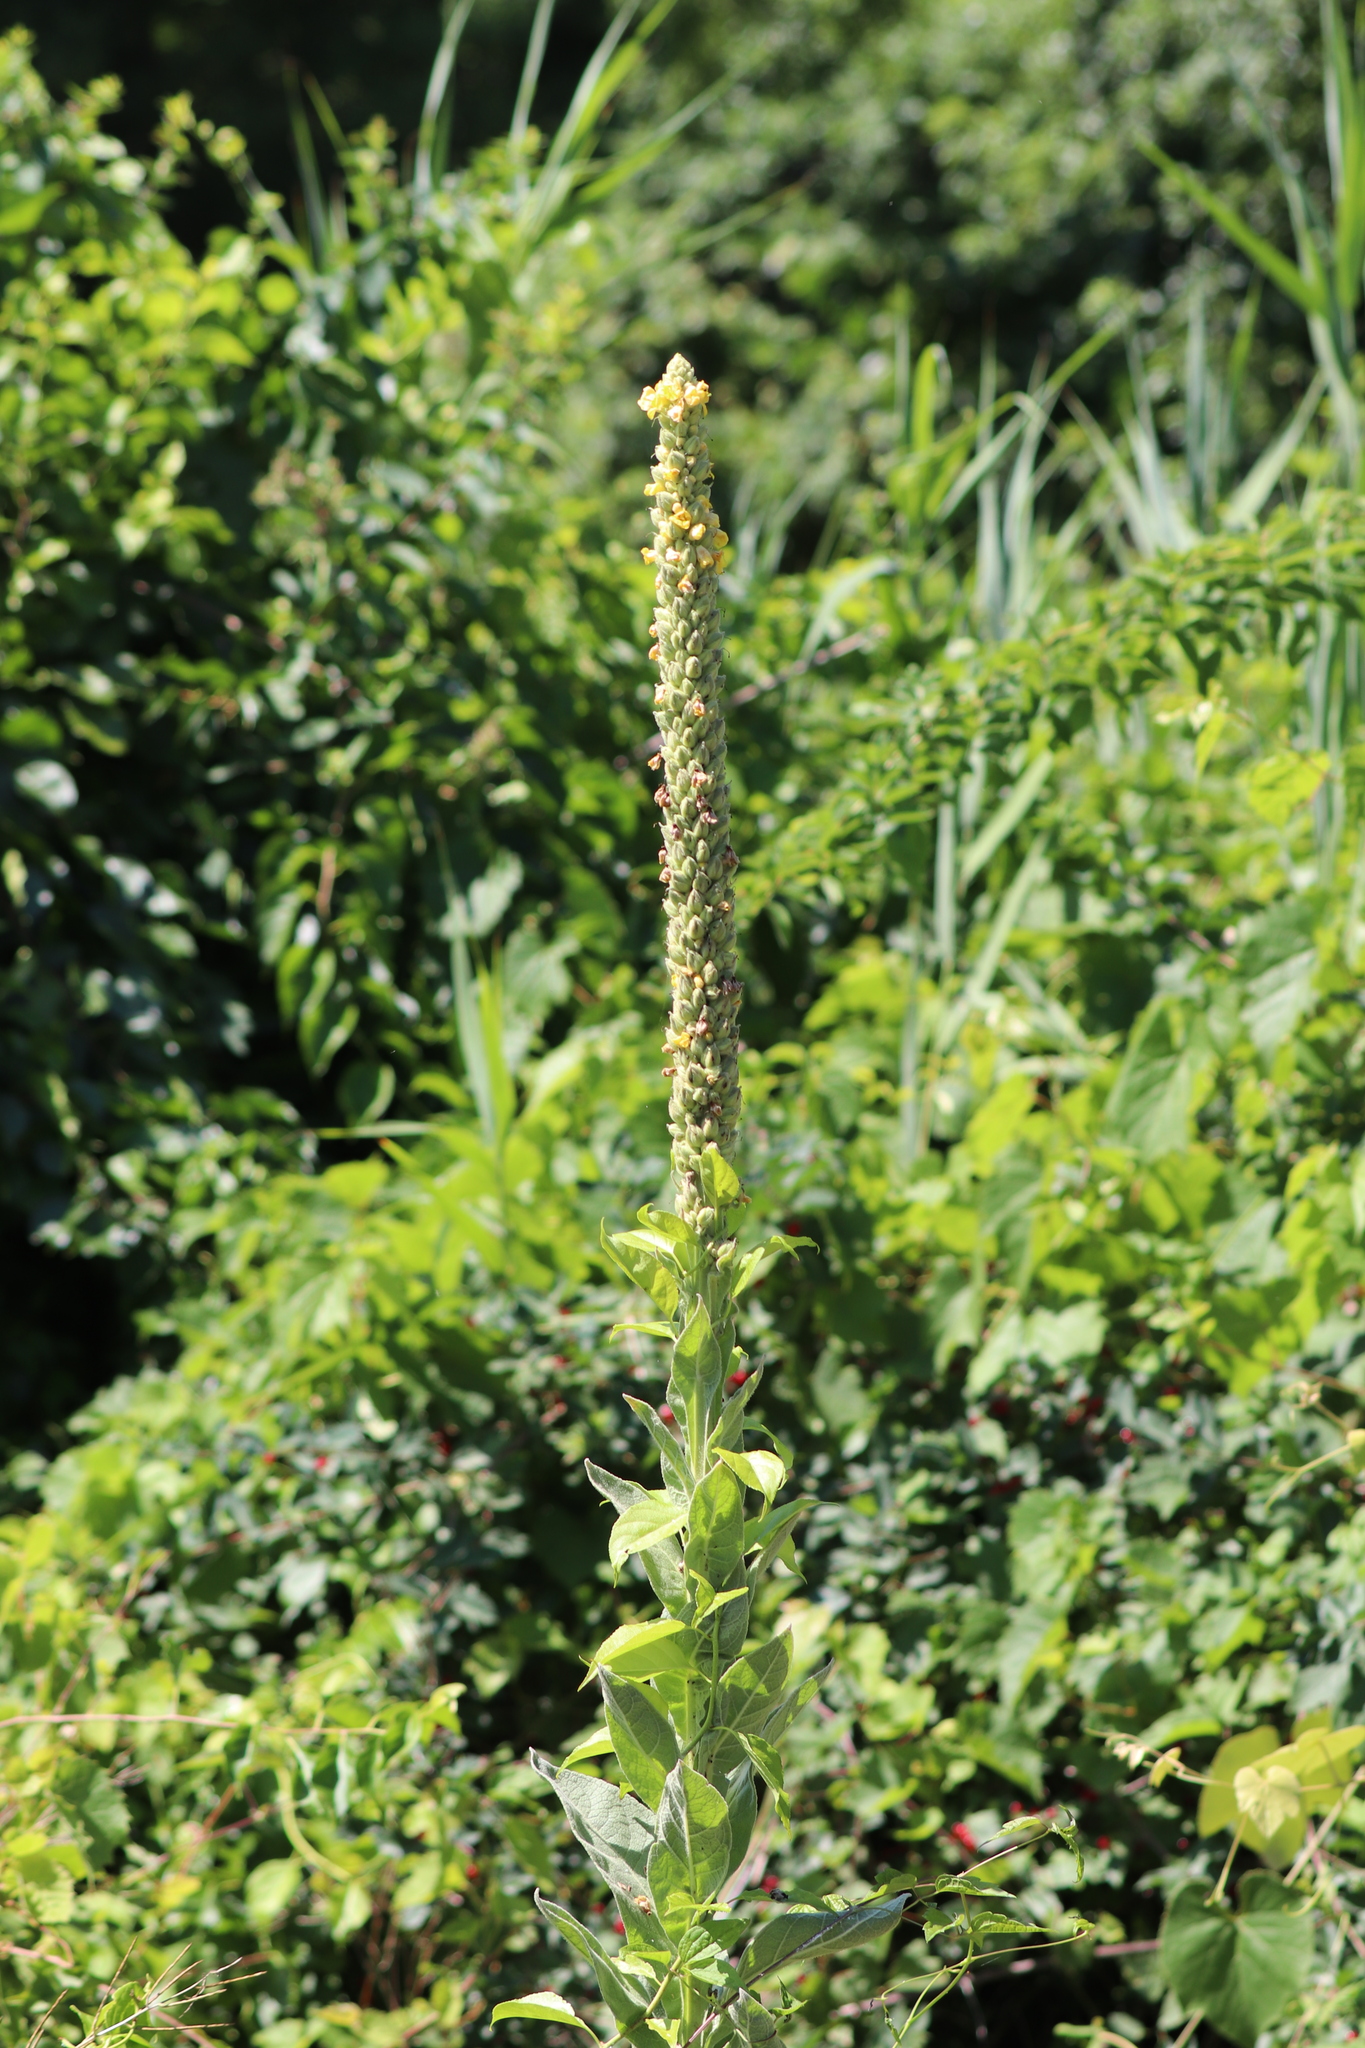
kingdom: Plantae
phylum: Tracheophyta
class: Magnoliopsida
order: Lamiales
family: Scrophulariaceae
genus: Verbascum
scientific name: Verbascum thapsus
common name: Common mullein
